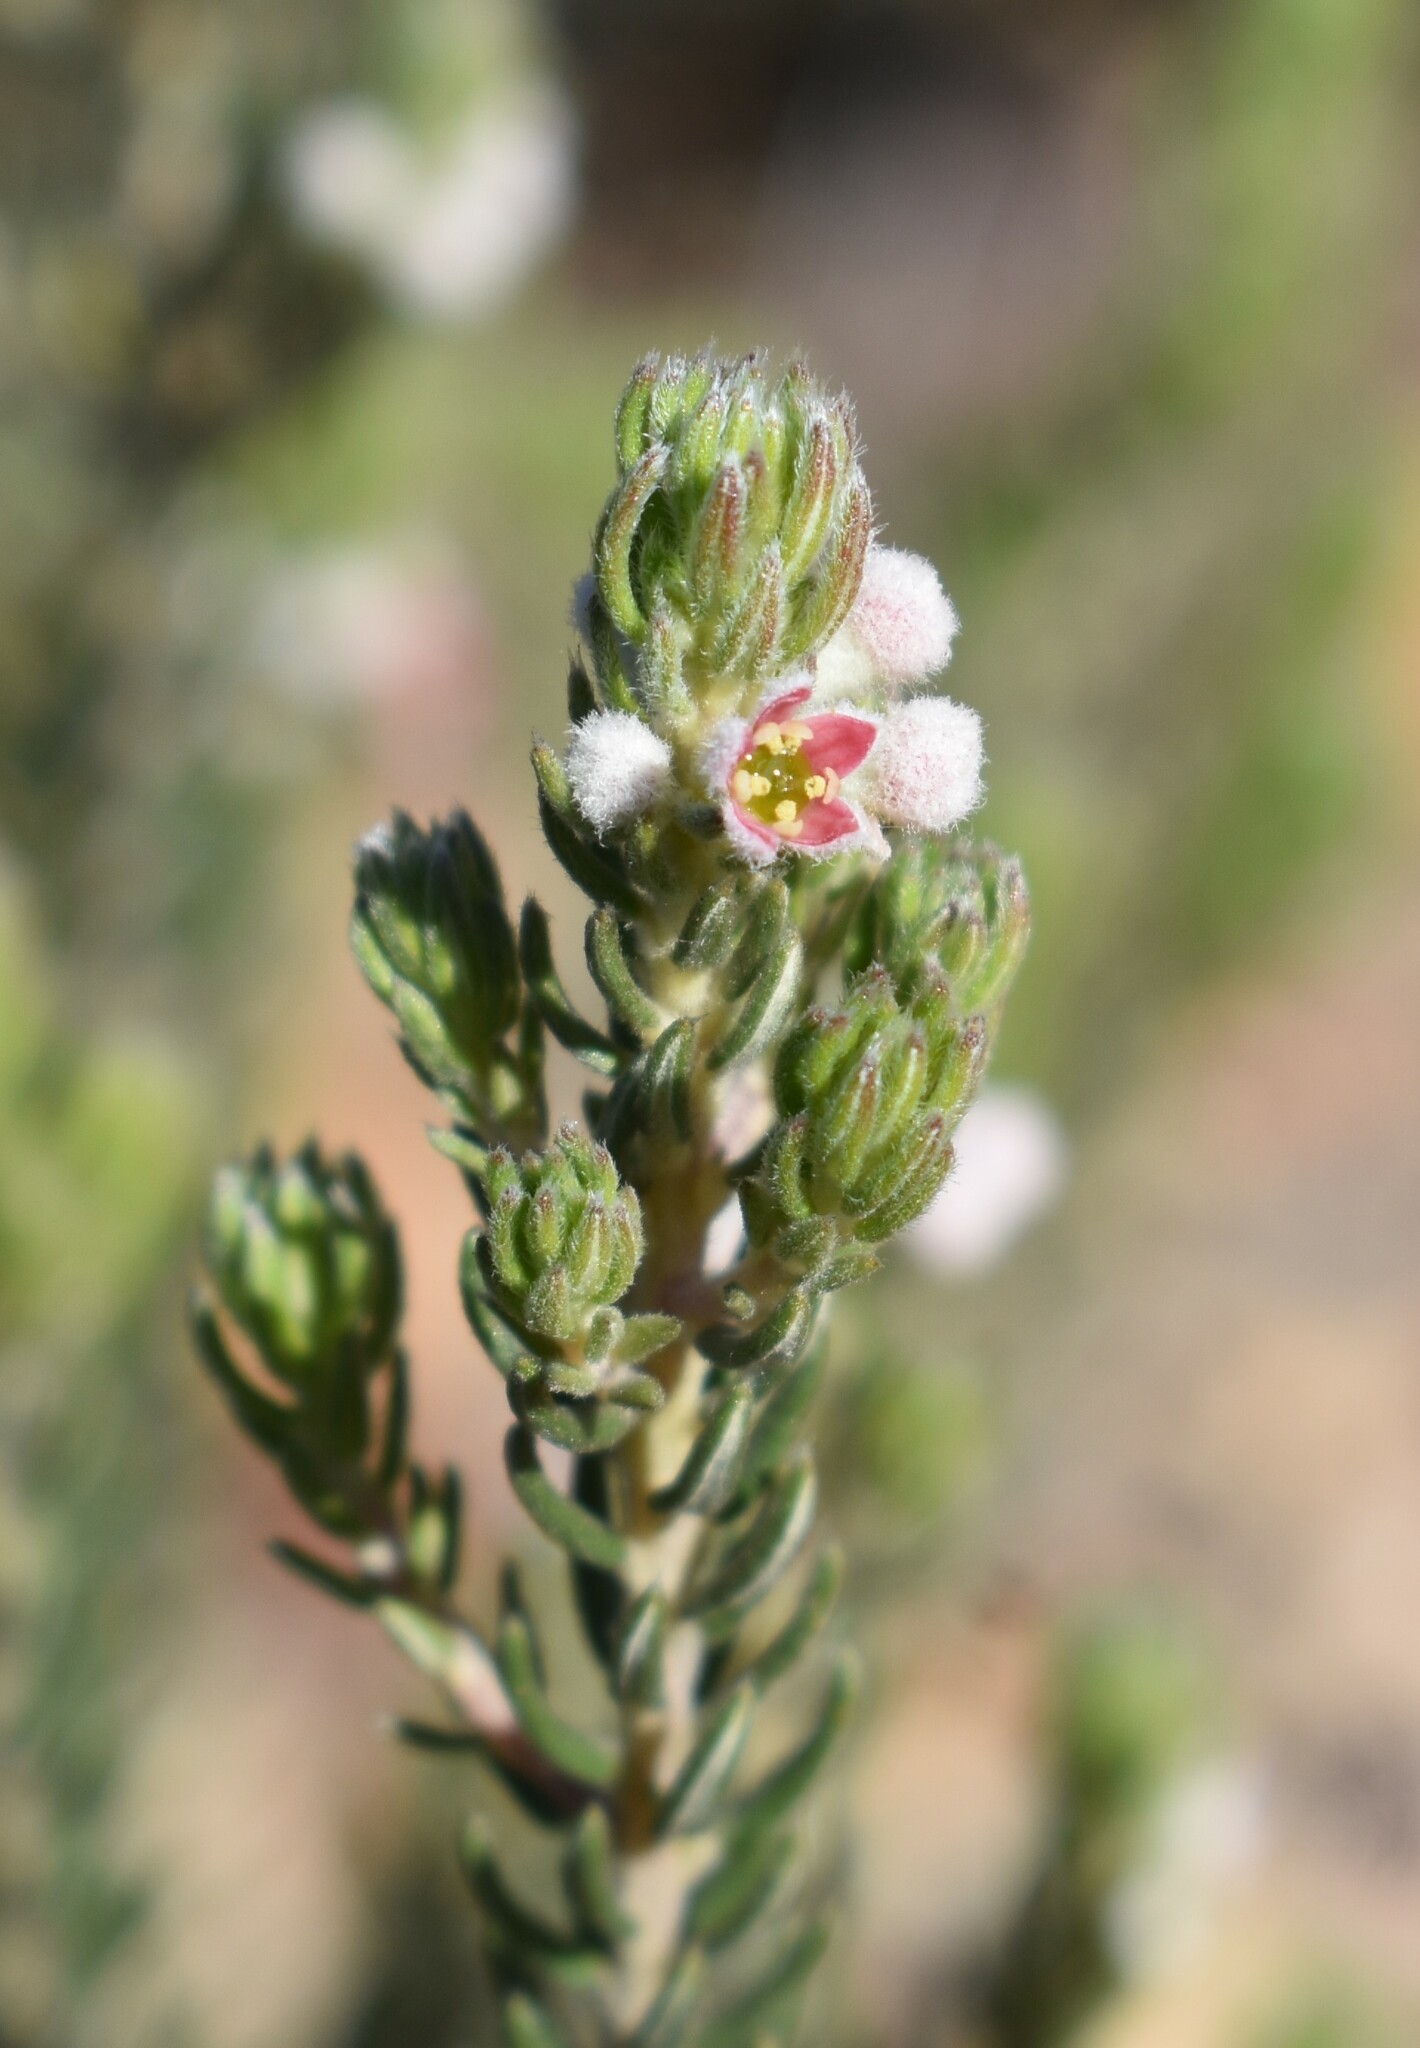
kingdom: Plantae
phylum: Tracheophyta
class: Magnoliopsida
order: Rosales
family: Rhamnaceae
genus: Phylica
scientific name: Phylica purpurea
